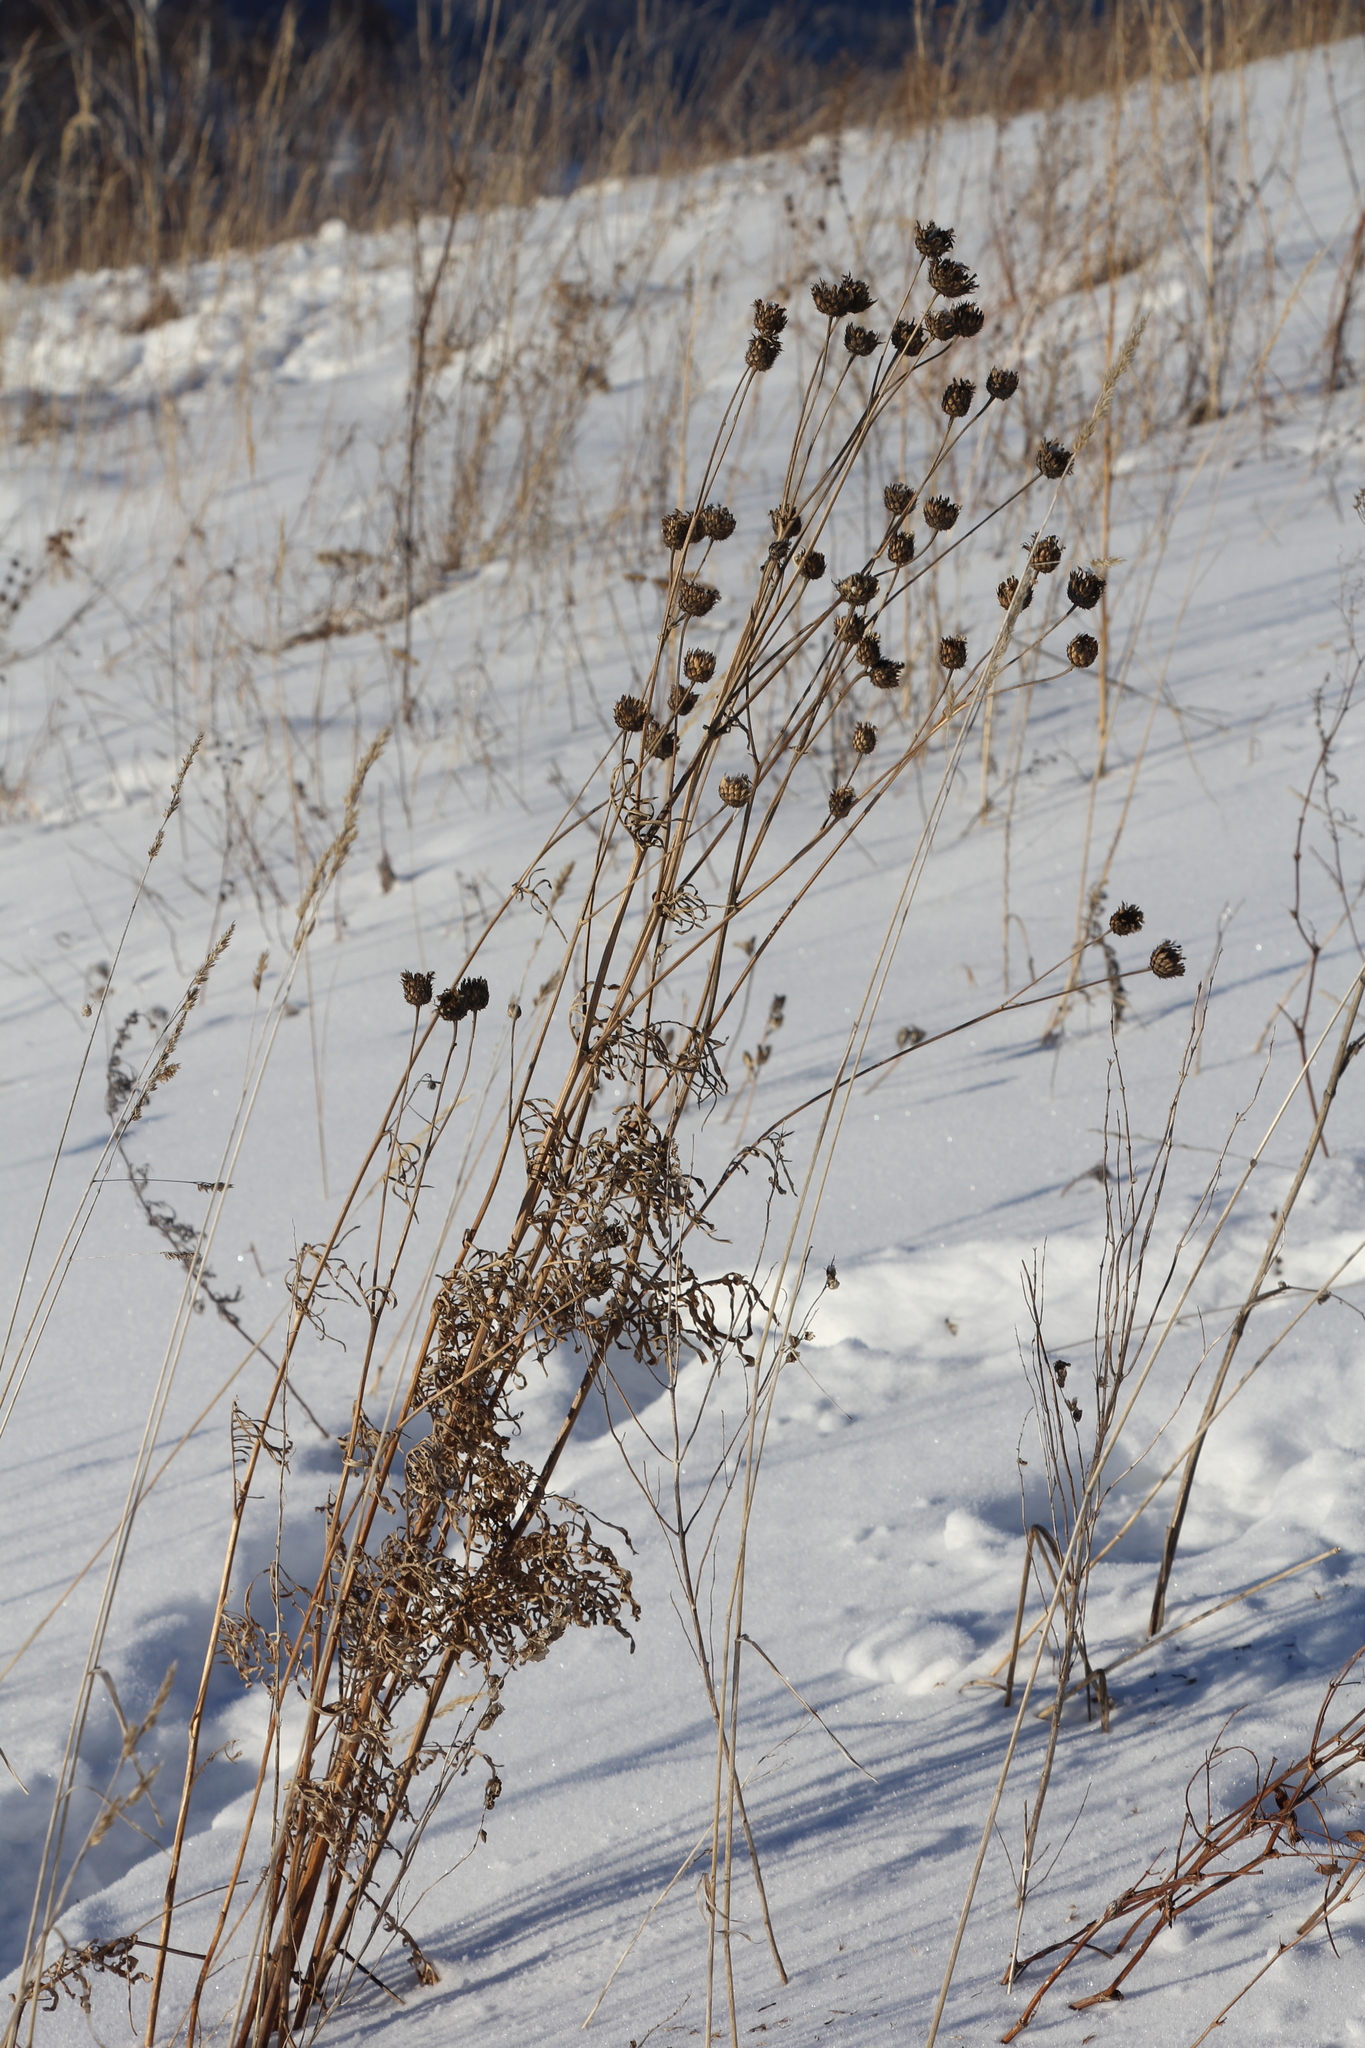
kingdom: Plantae
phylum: Tracheophyta
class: Magnoliopsida
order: Asterales
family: Asteraceae
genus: Centaurea
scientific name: Centaurea scabiosa
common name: Greater knapweed
